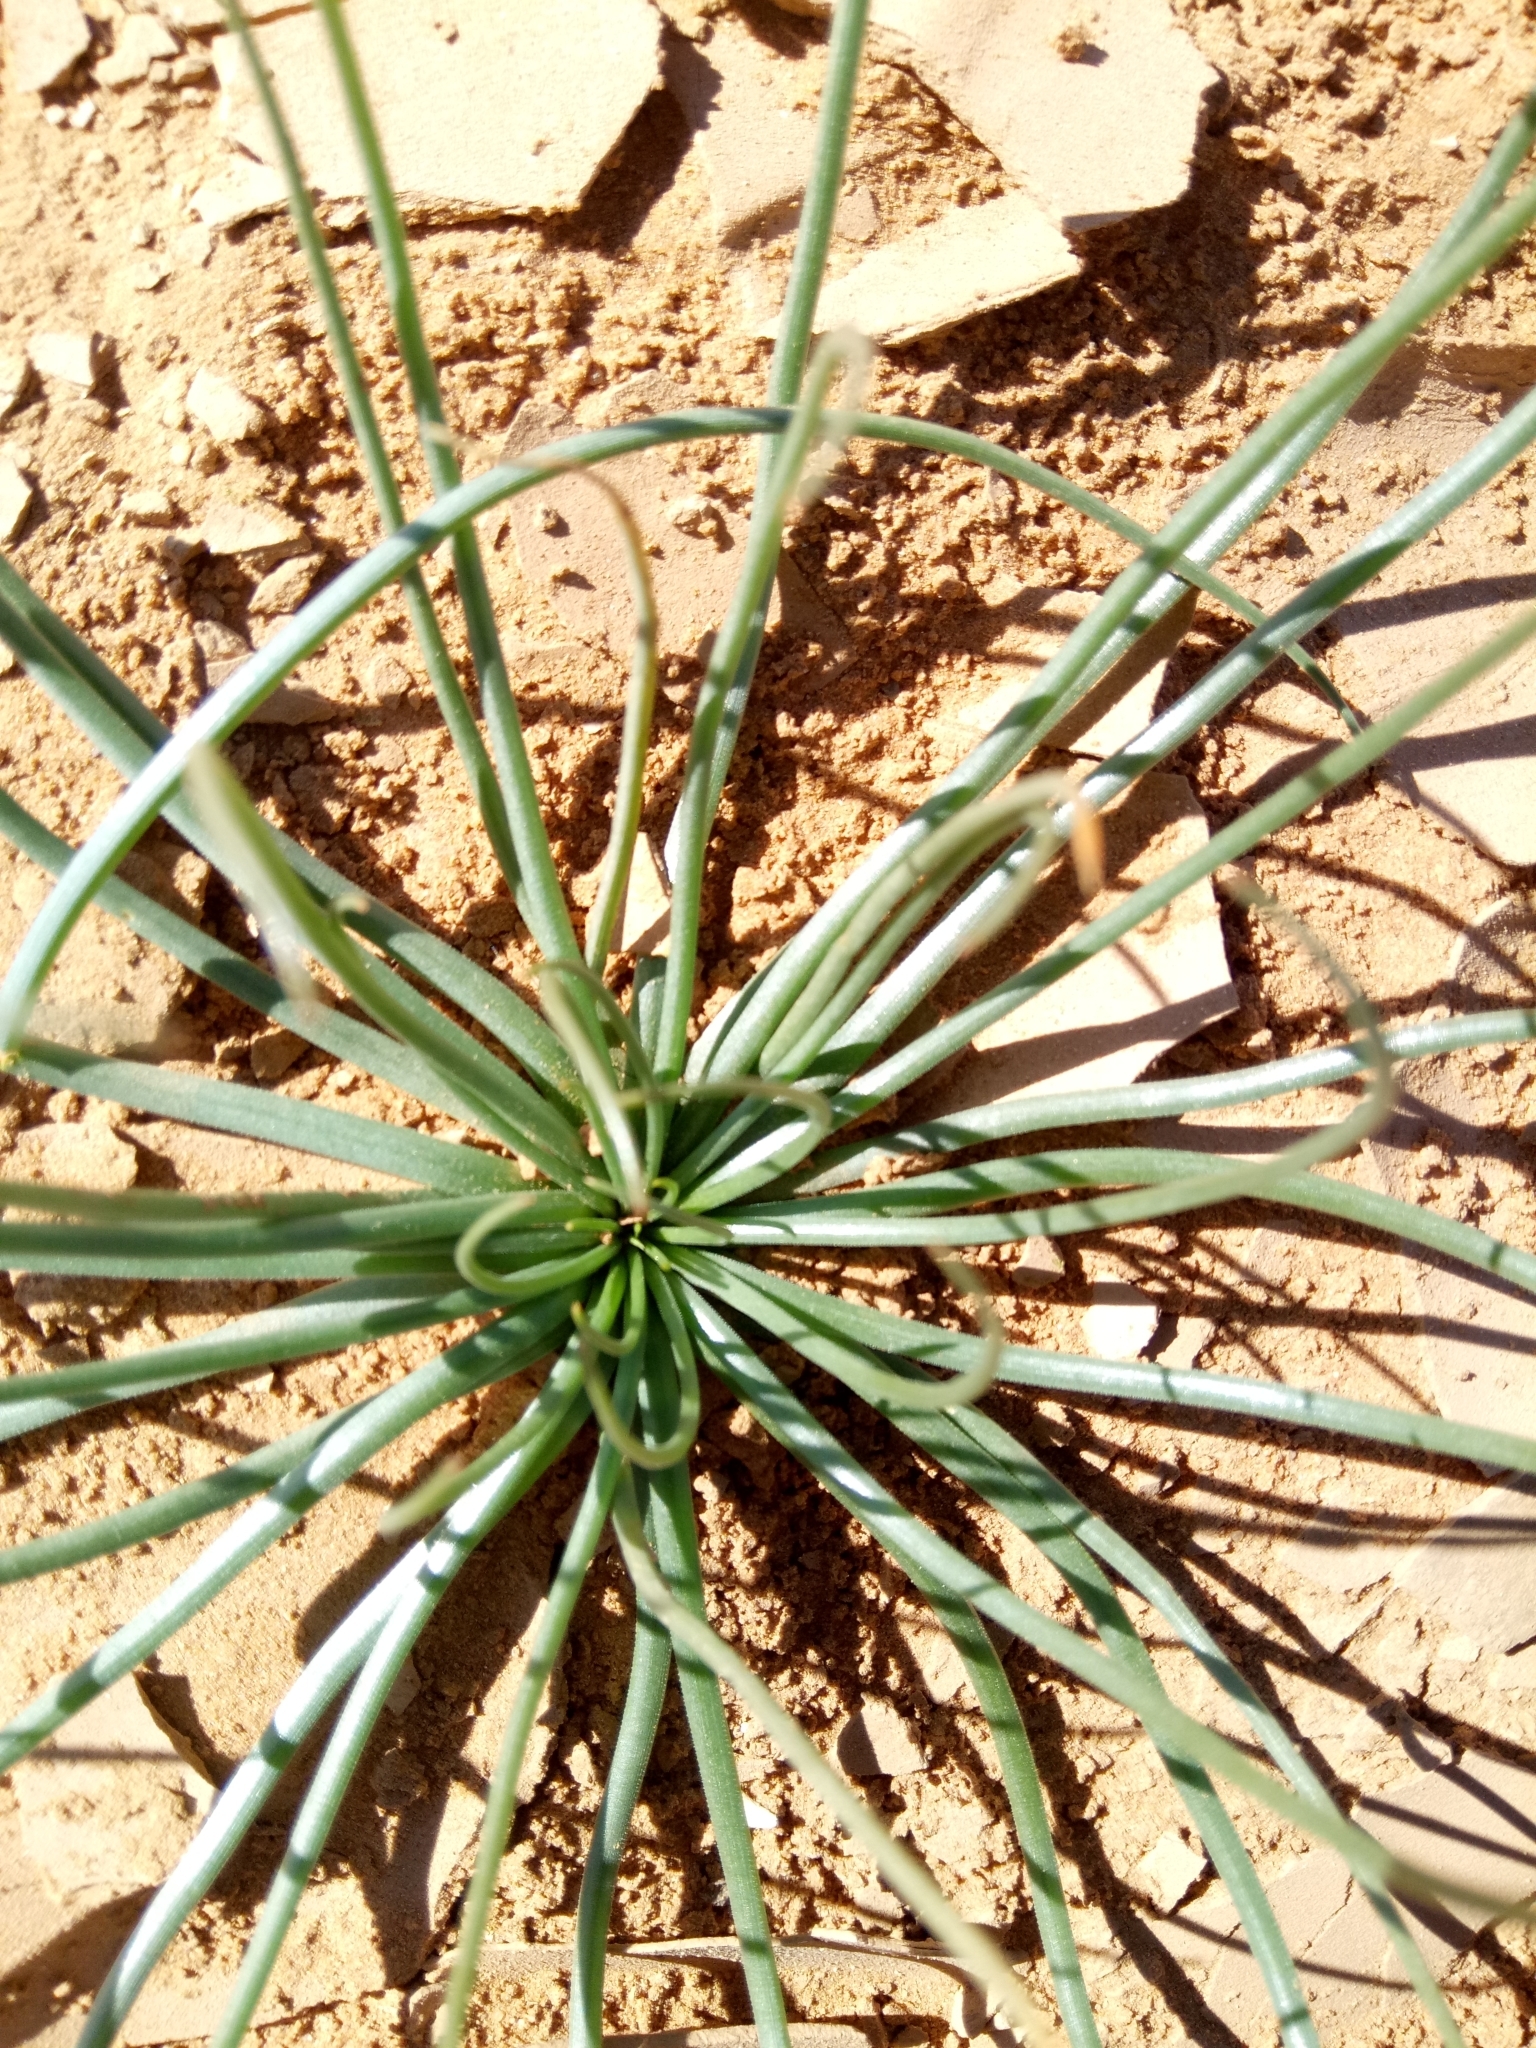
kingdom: Plantae
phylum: Tracheophyta
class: Liliopsida
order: Asparagales
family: Asphodelaceae
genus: Asphodelus
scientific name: Asphodelus tenuifolius
